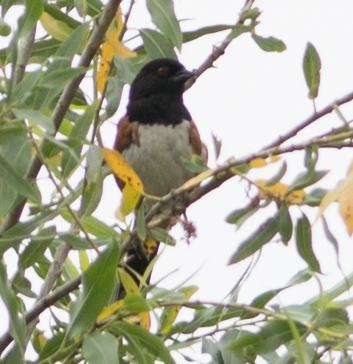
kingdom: Animalia
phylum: Chordata
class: Aves
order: Passeriformes
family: Passerellidae
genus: Pipilo
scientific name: Pipilo maculatus
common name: Spotted towhee
